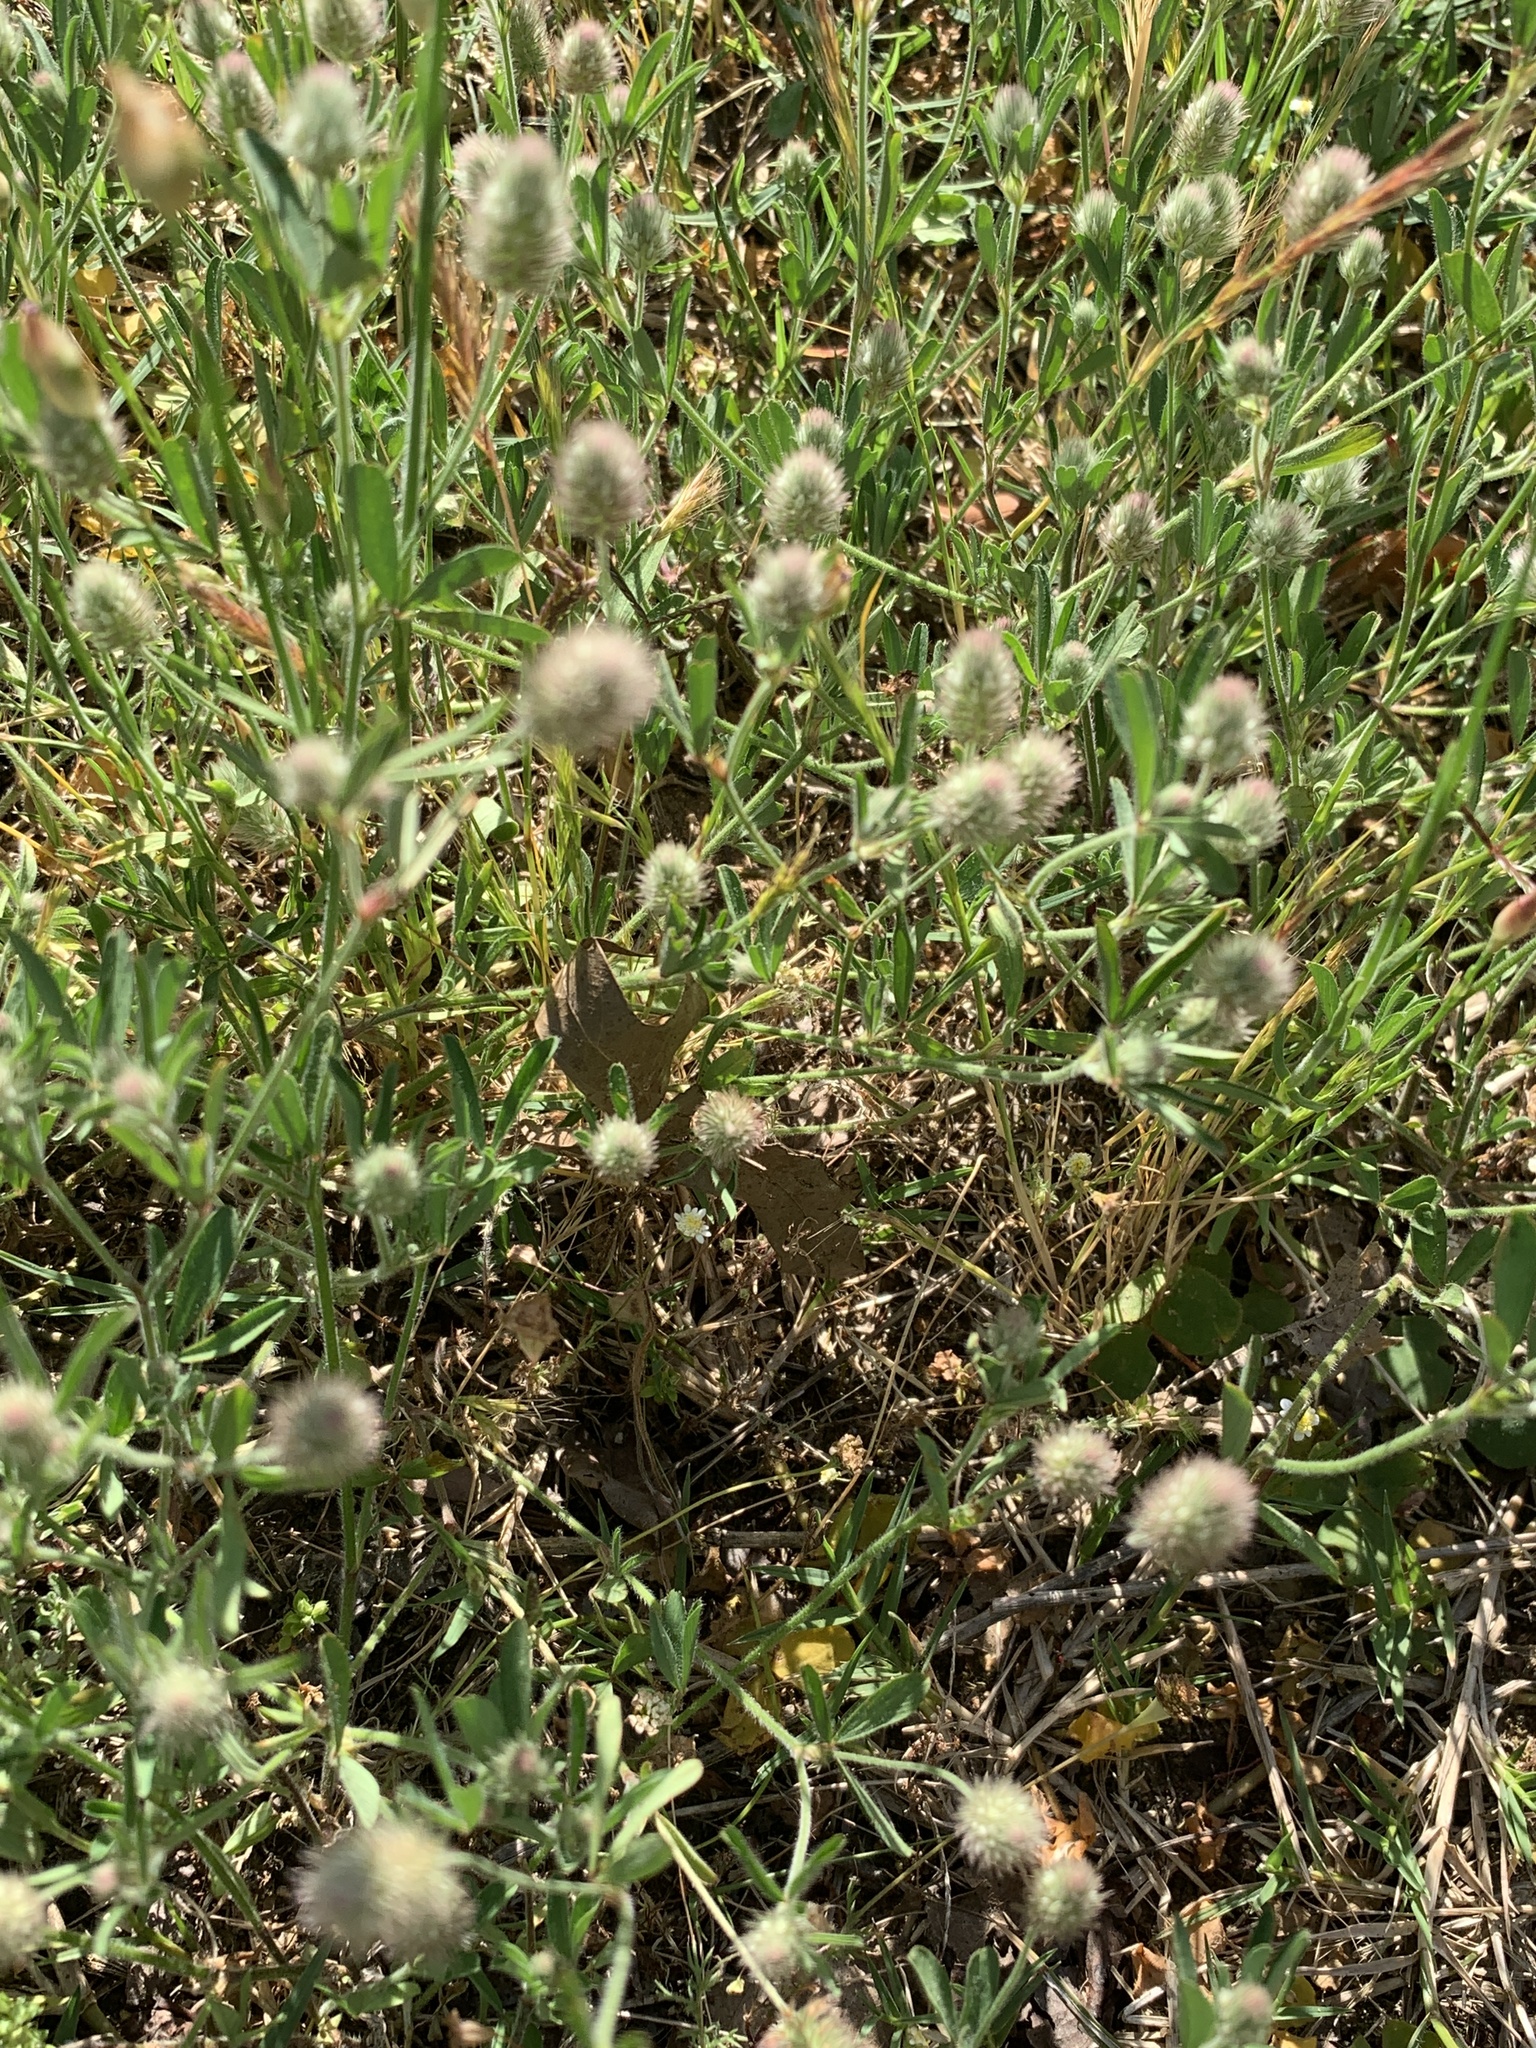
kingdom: Plantae
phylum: Tracheophyta
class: Magnoliopsida
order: Fabales
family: Fabaceae
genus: Trifolium
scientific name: Trifolium arvense
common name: Hare's-foot clover
